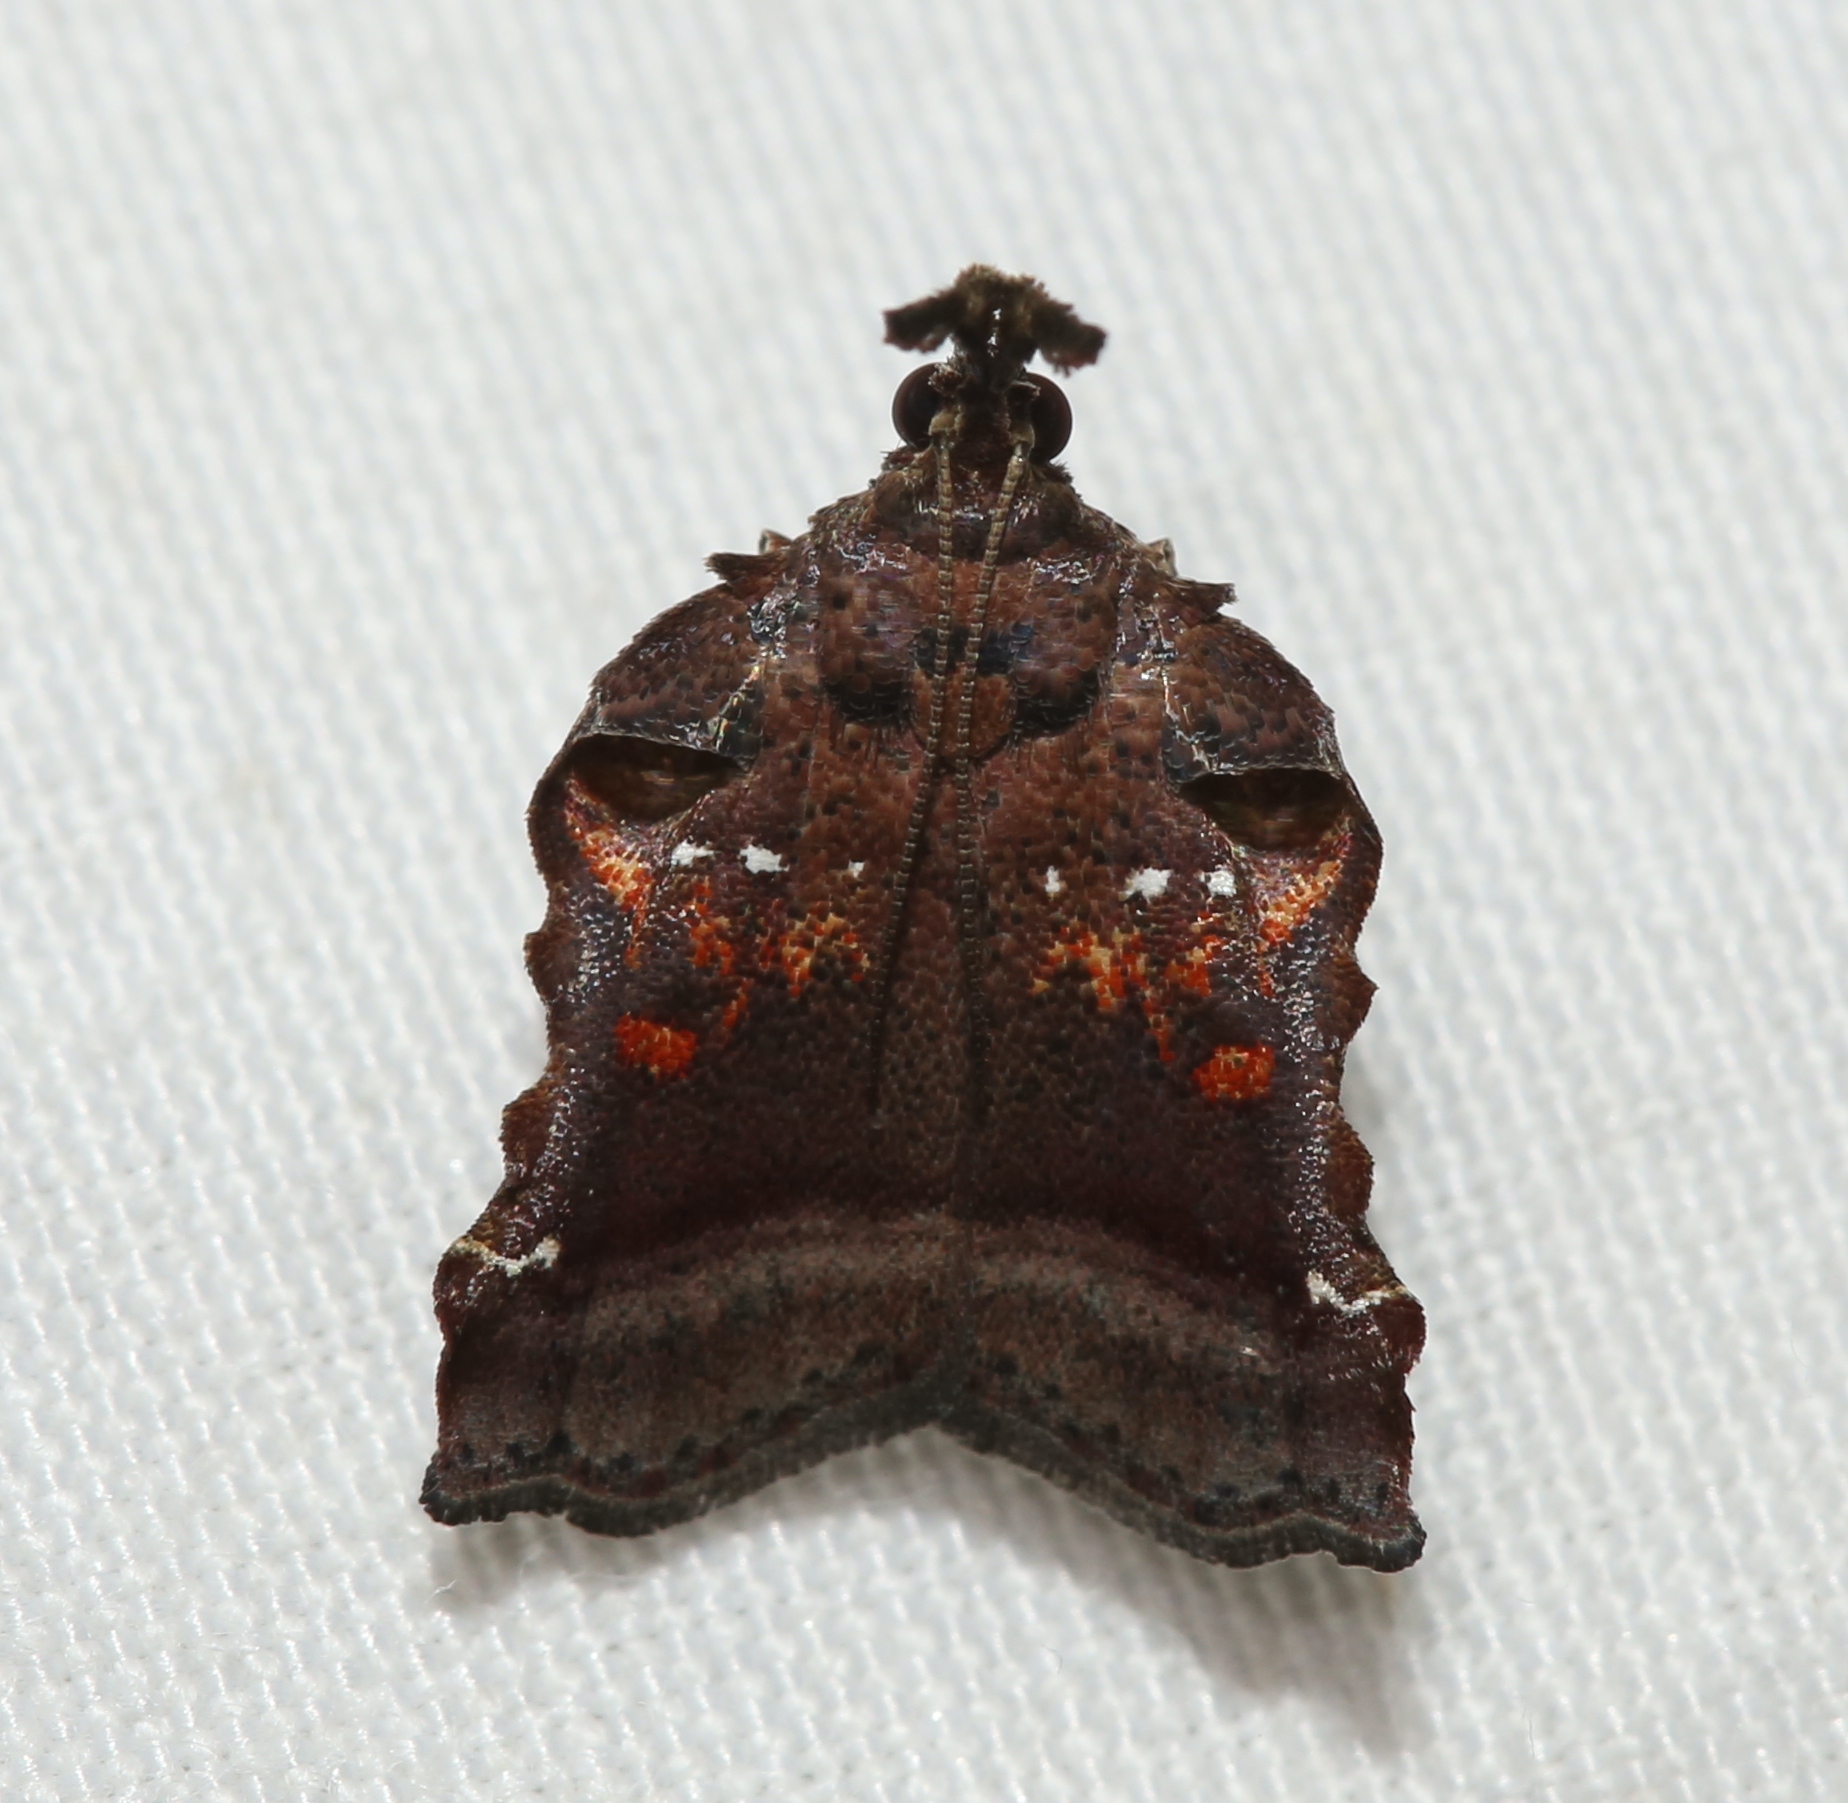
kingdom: Animalia
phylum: Arthropoda
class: Insecta
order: Lepidoptera
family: Pyralidae
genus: Clydonopteron
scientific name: Clydonopteron sacculana
